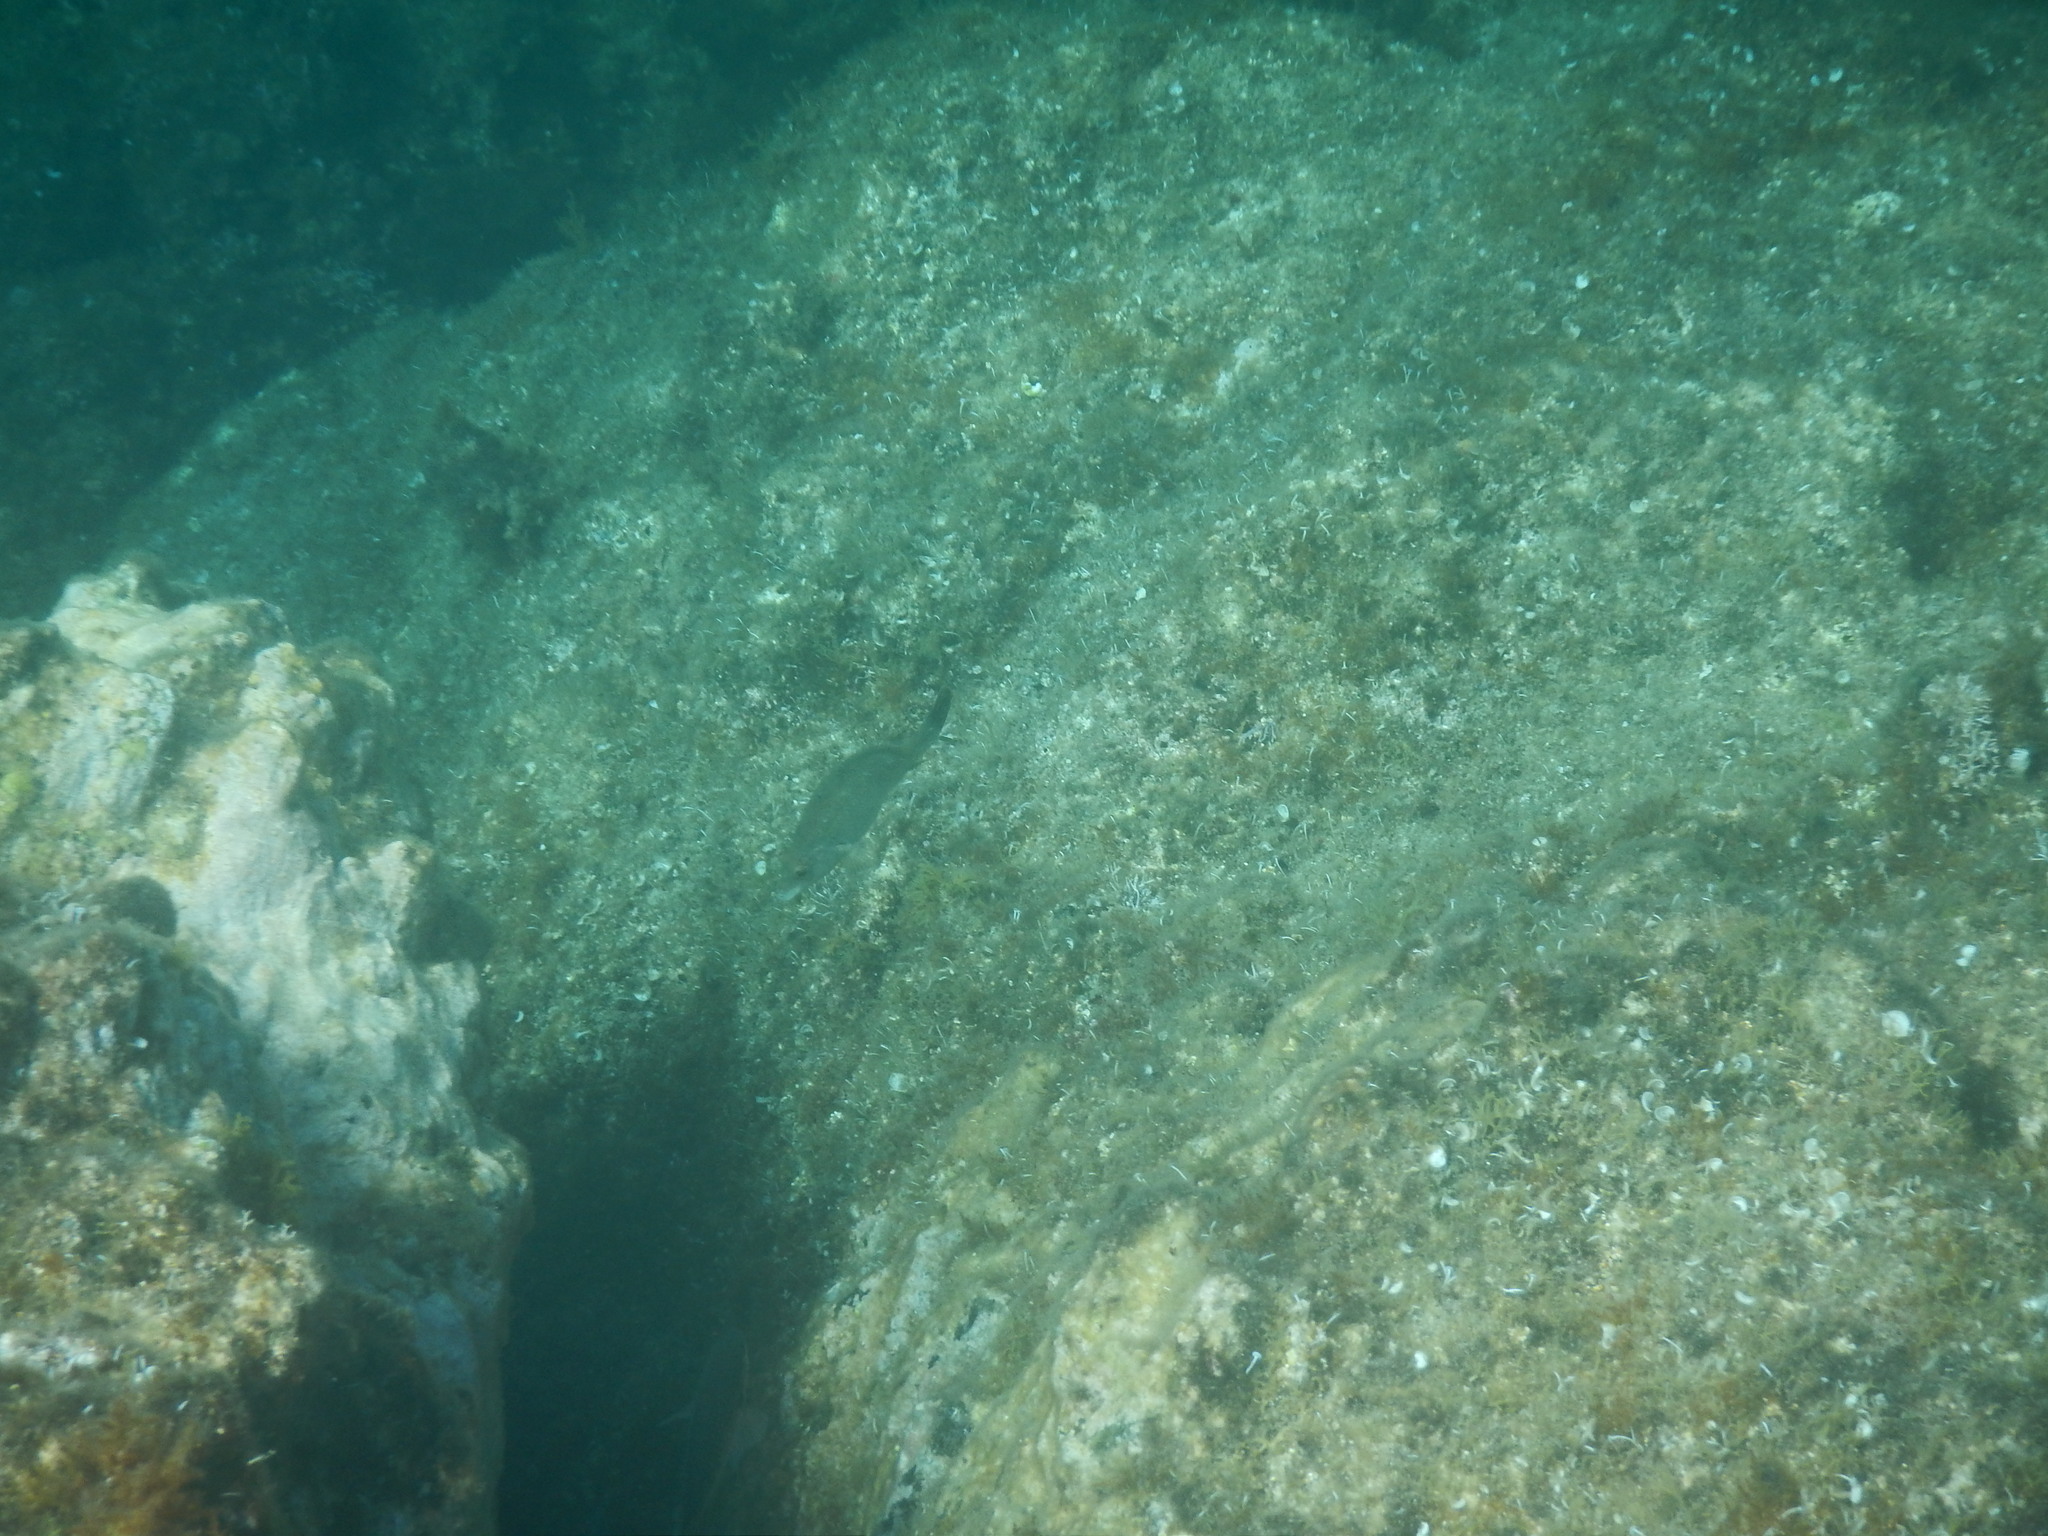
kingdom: Animalia
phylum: Chordata
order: Perciformes
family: Labridae
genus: Symphodus
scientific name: Symphodus tinca
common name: Peacock wrasse
